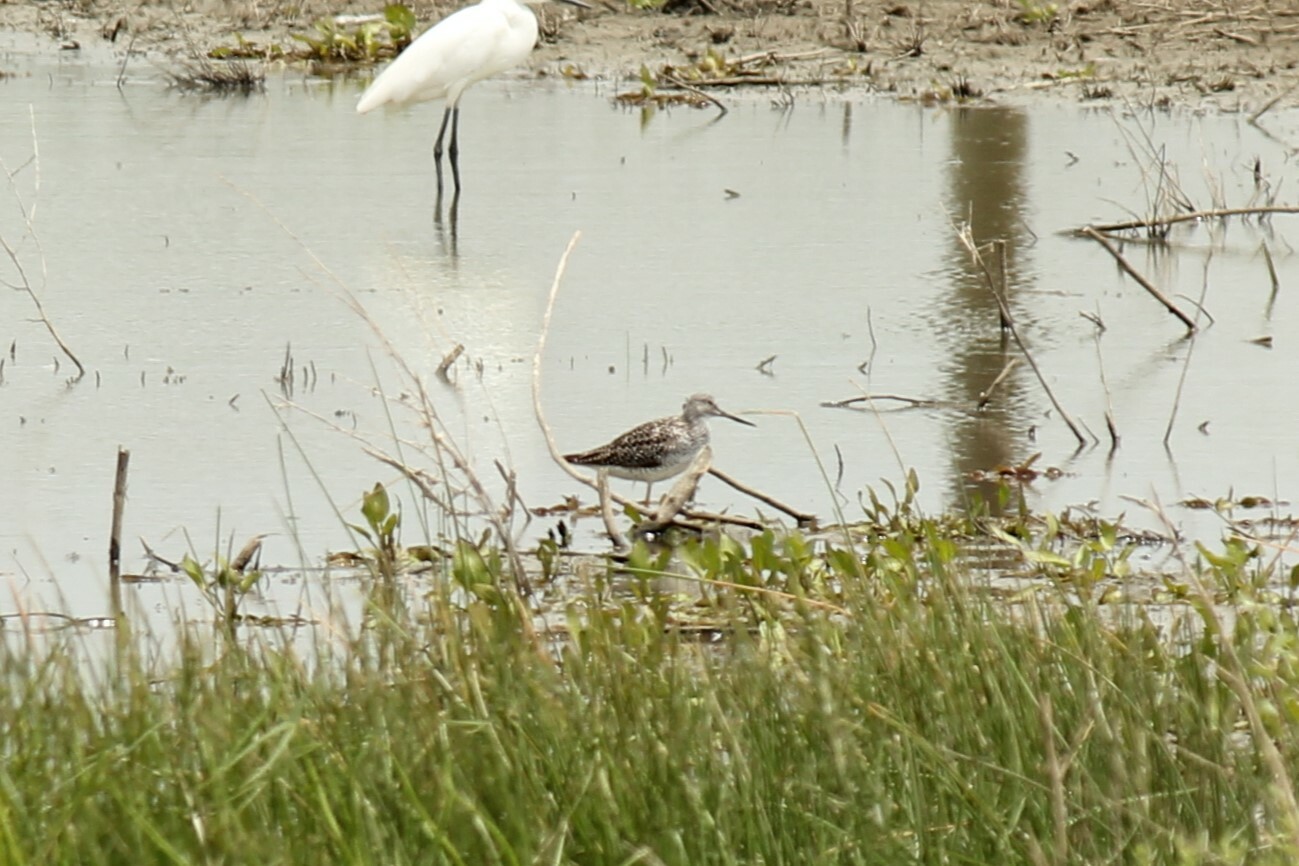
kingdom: Animalia
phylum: Chordata
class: Aves
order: Charadriiformes
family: Scolopacidae
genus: Tringa
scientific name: Tringa melanoleuca
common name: Greater yellowlegs
